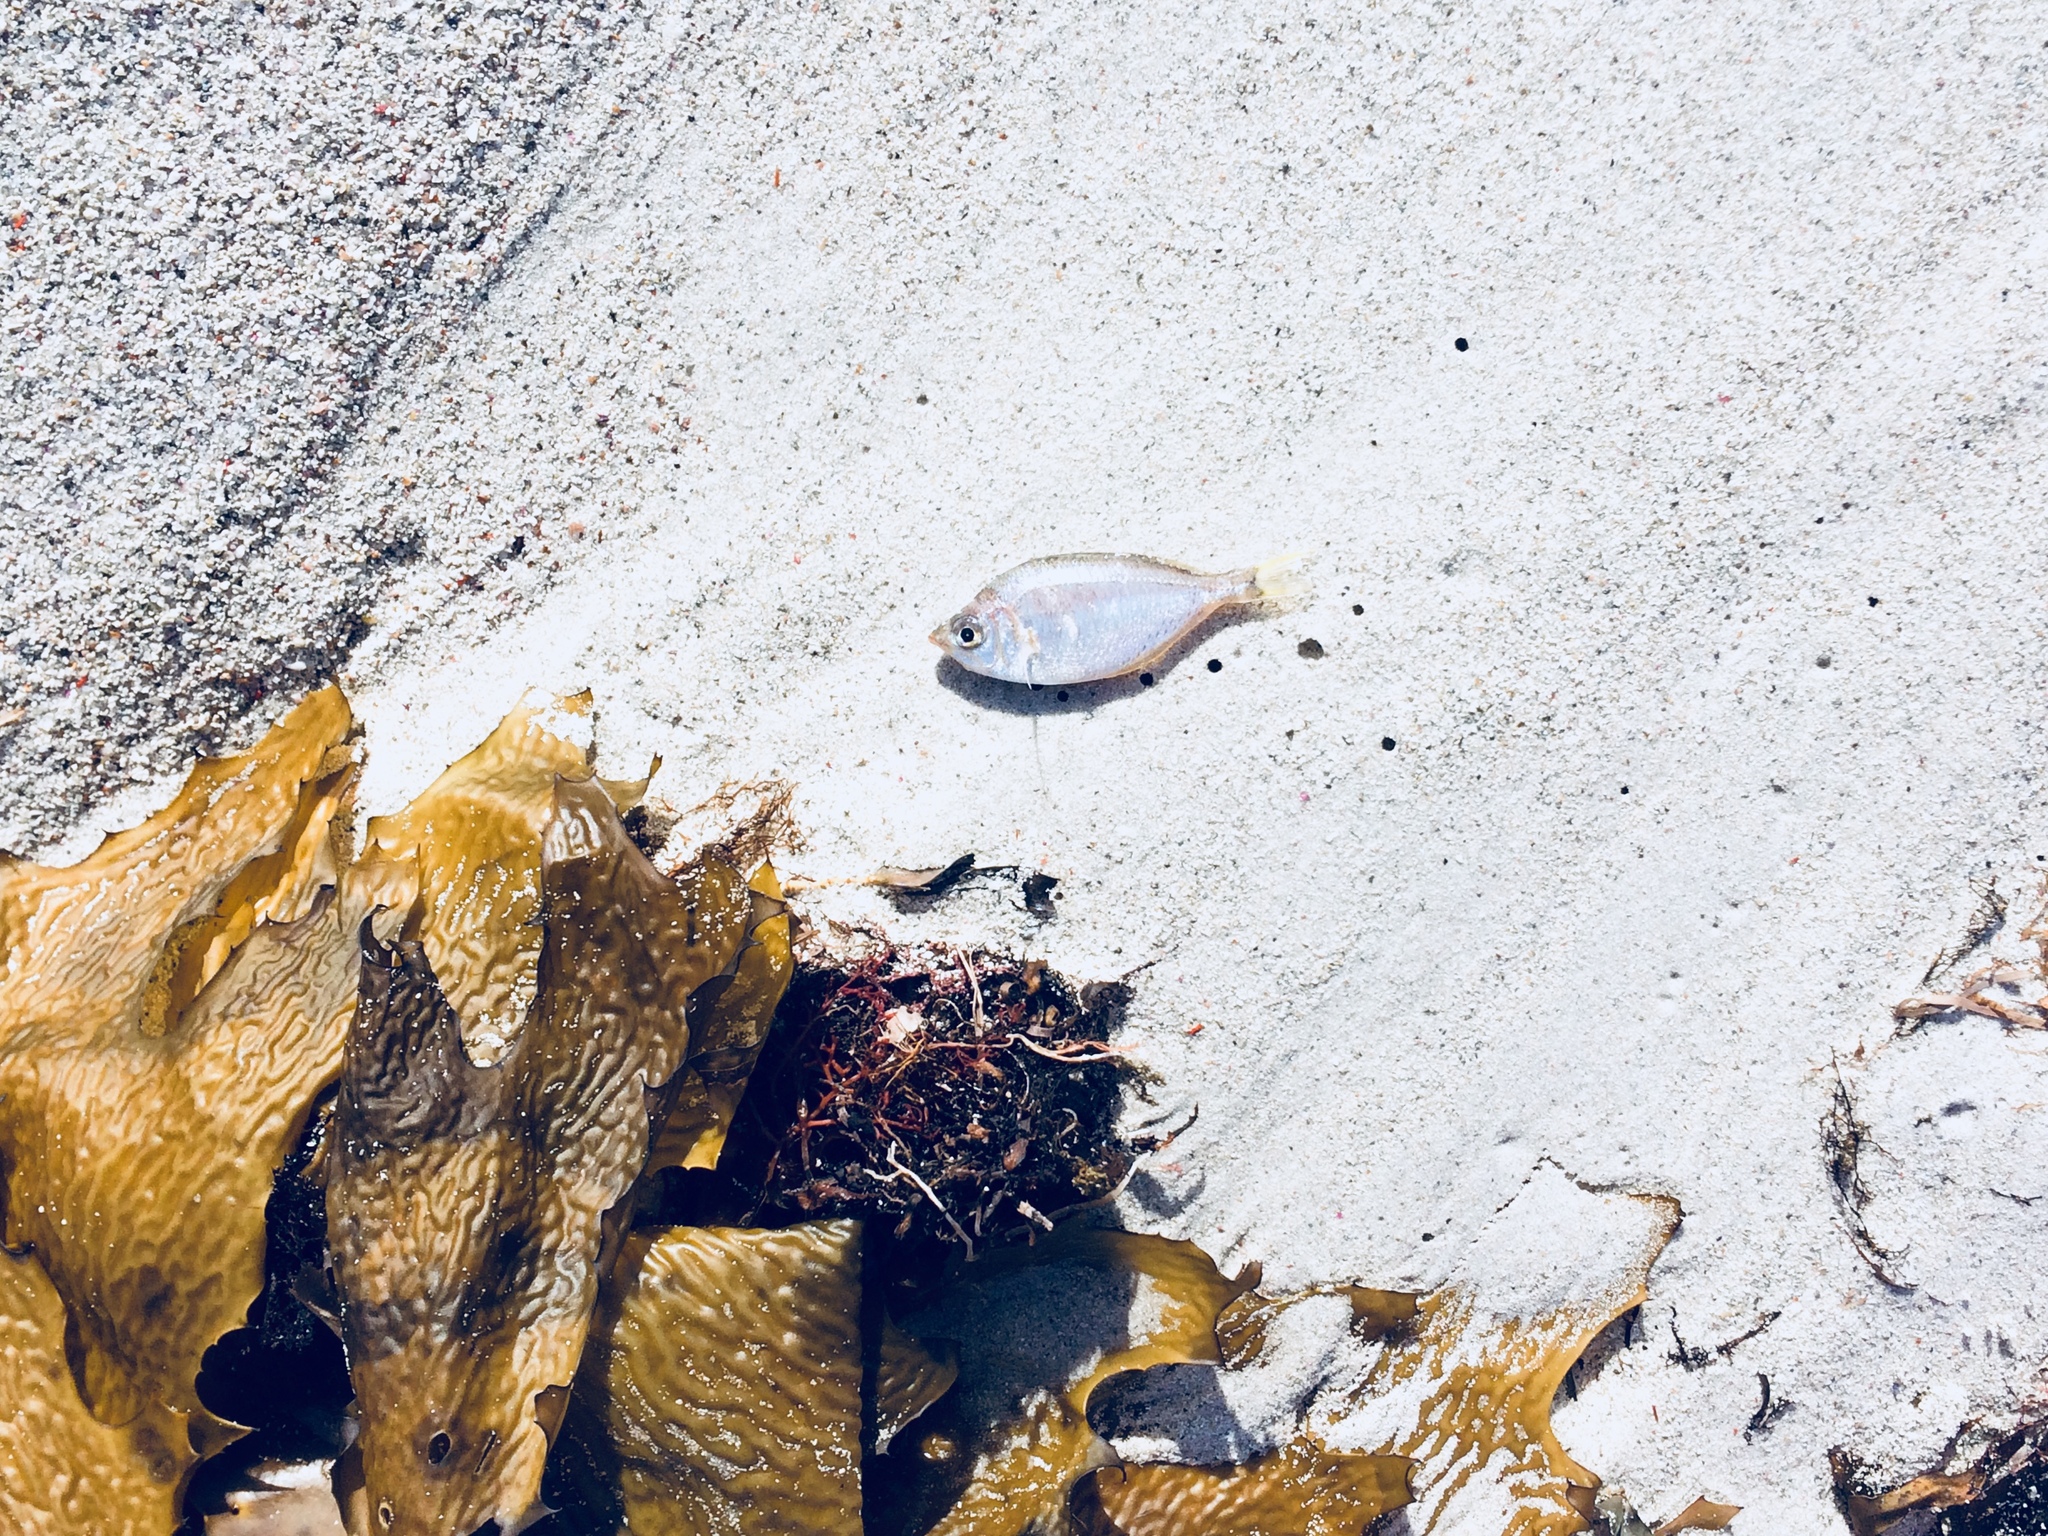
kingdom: Animalia
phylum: Chordata
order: Perciformes
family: Gerreidae
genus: Parequula
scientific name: Parequula melbournensis
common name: Silverbelly
